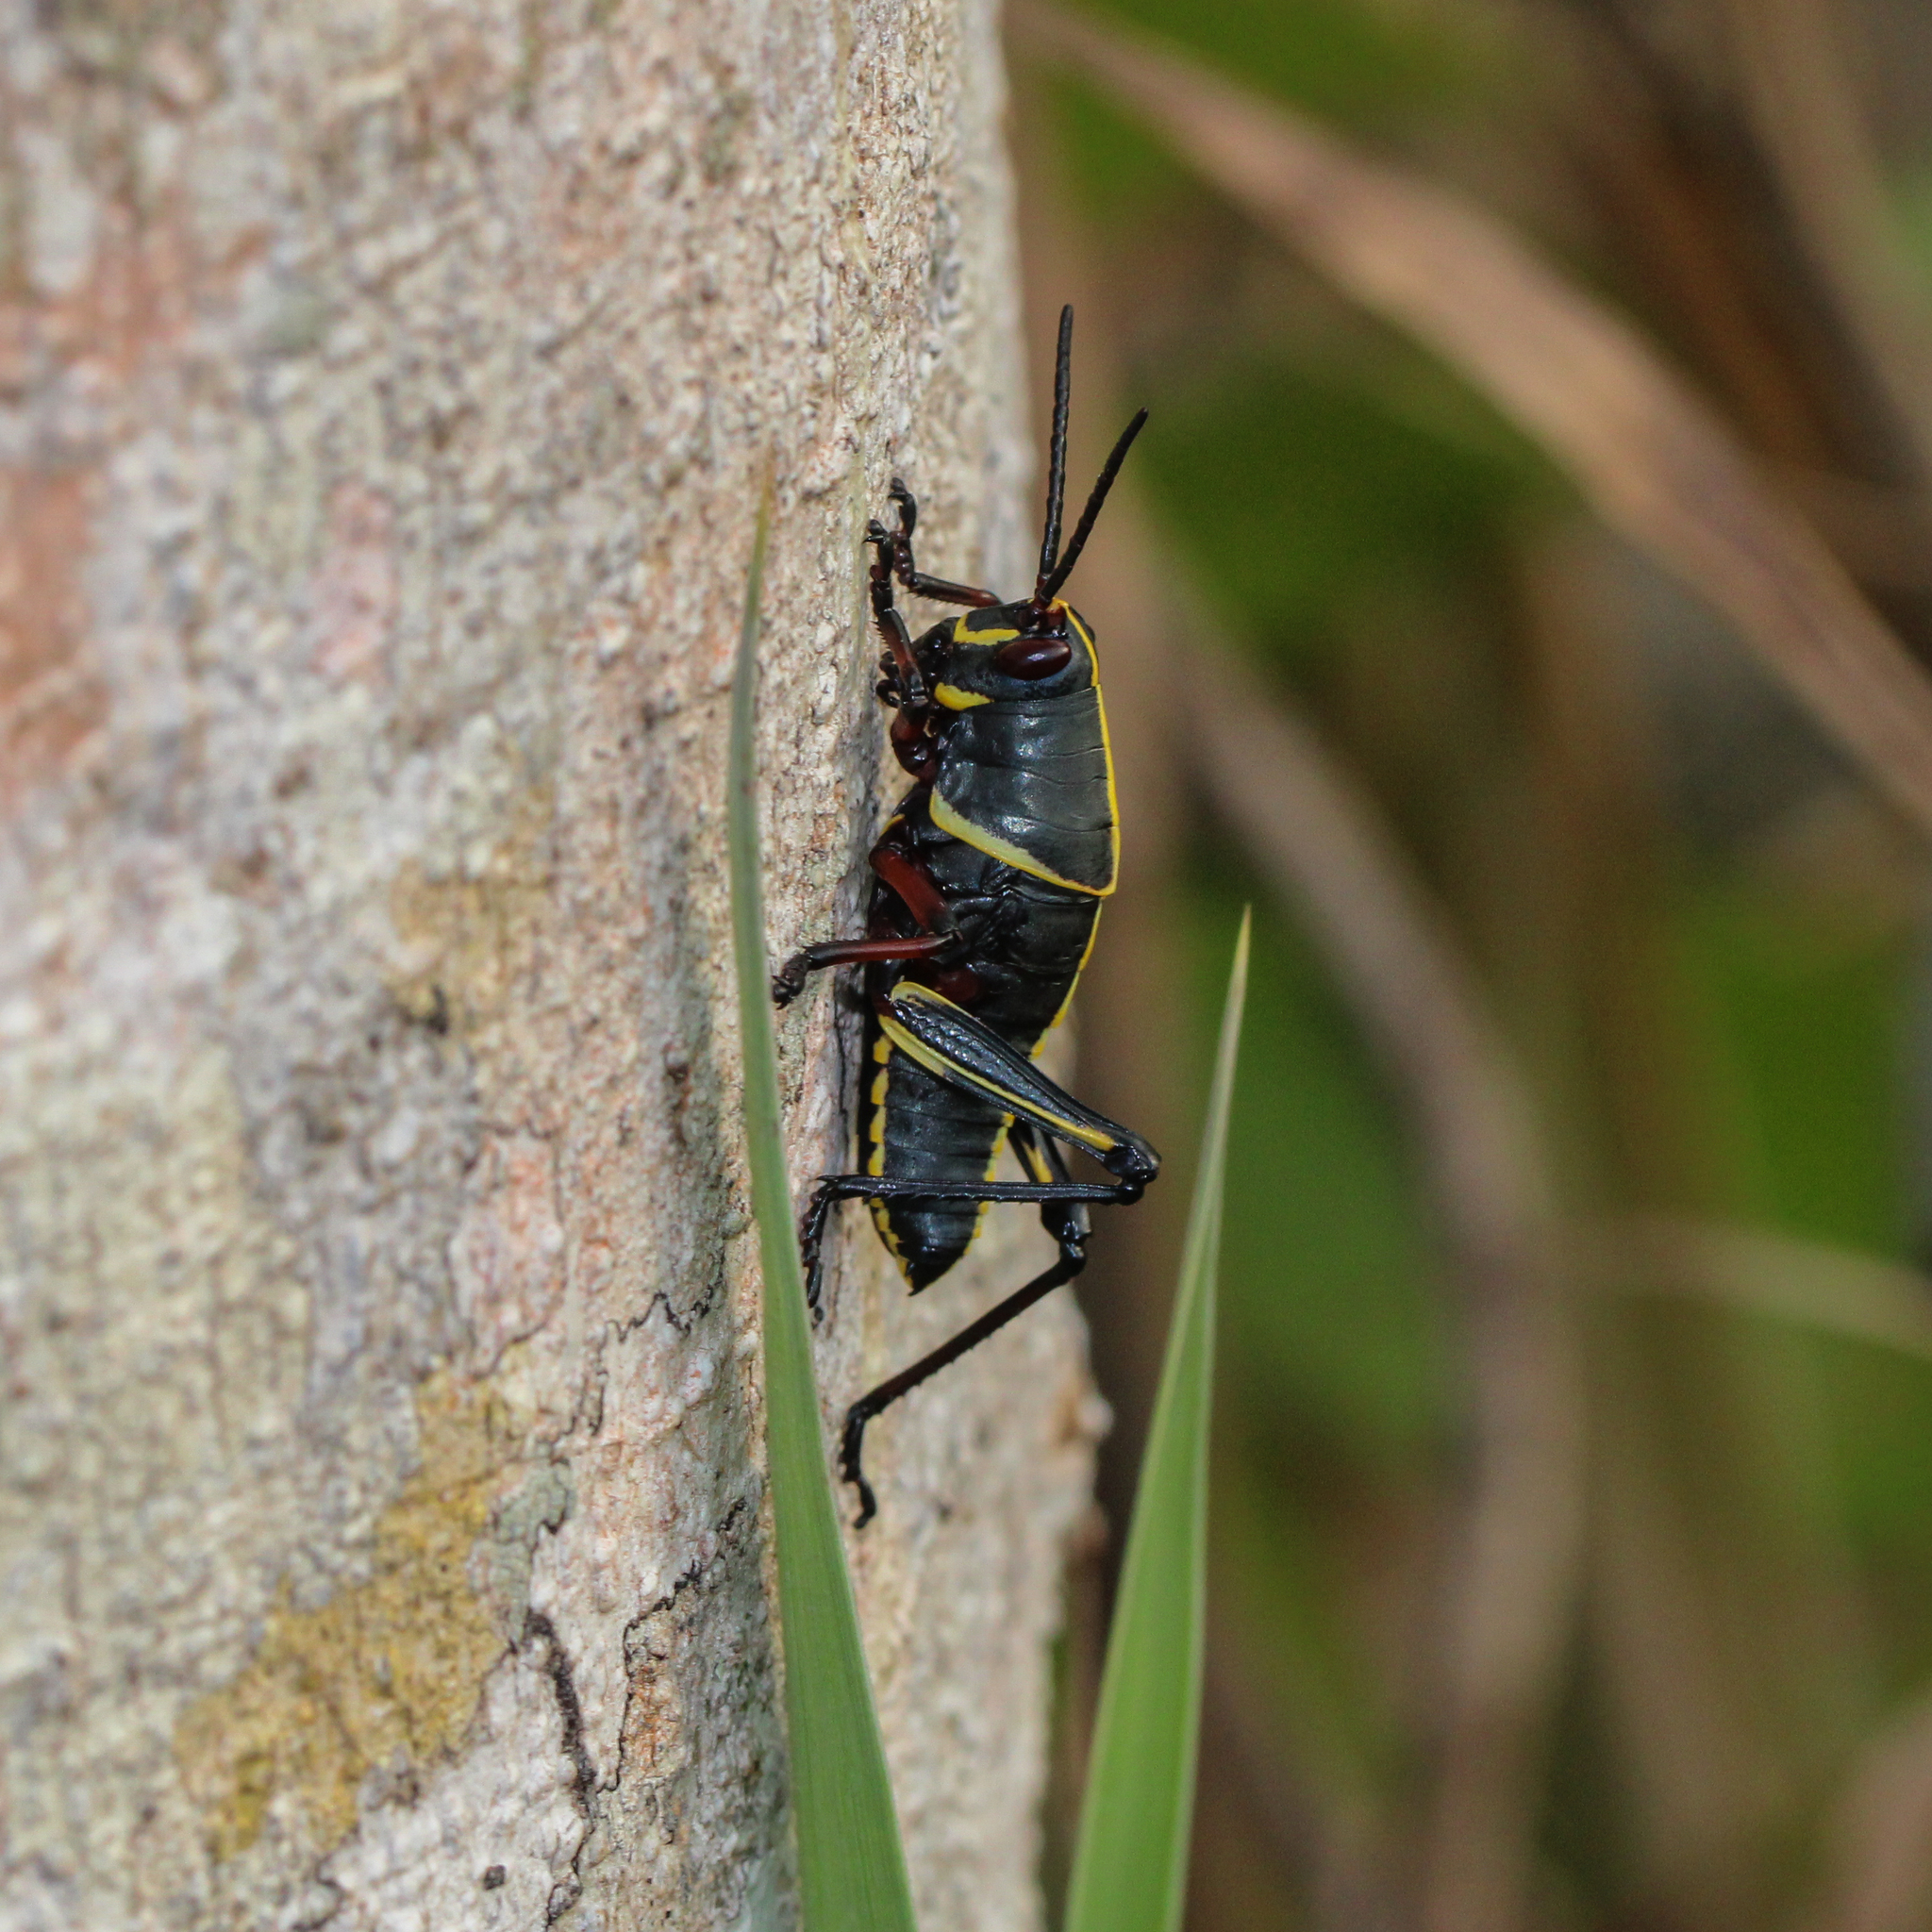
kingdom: Animalia
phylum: Arthropoda
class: Insecta
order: Orthoptera
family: Romaleidae
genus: Romalea
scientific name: Romalea microptera
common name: Eastern lubber grasshopper
